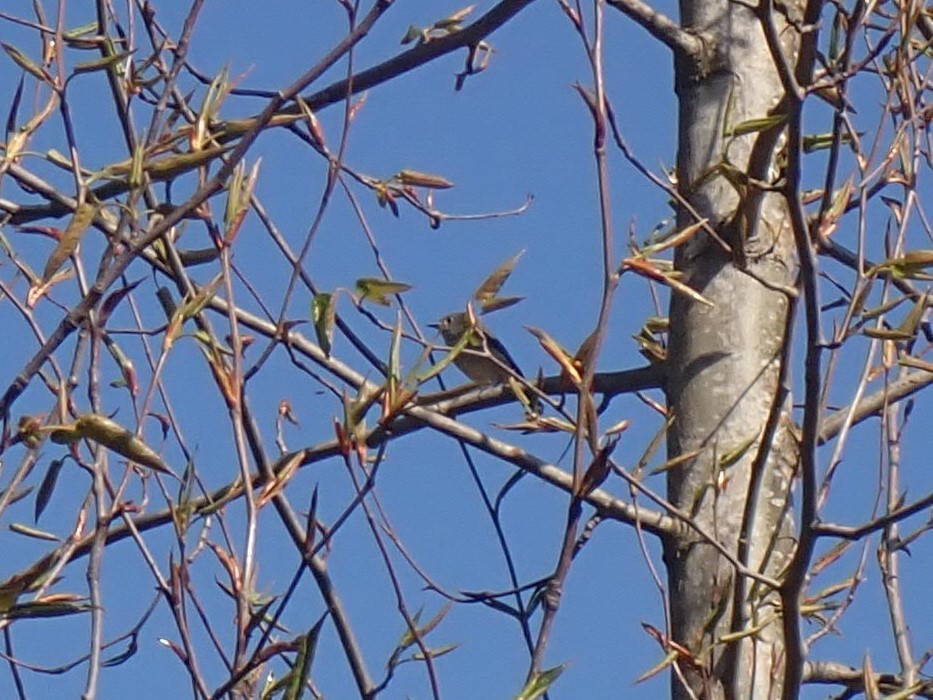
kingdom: Animalia
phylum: Chordata
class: Aves
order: Passeriformes
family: Regulidae
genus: Regulus
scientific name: Regulus calendula
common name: Ruby-crowned kinglet
